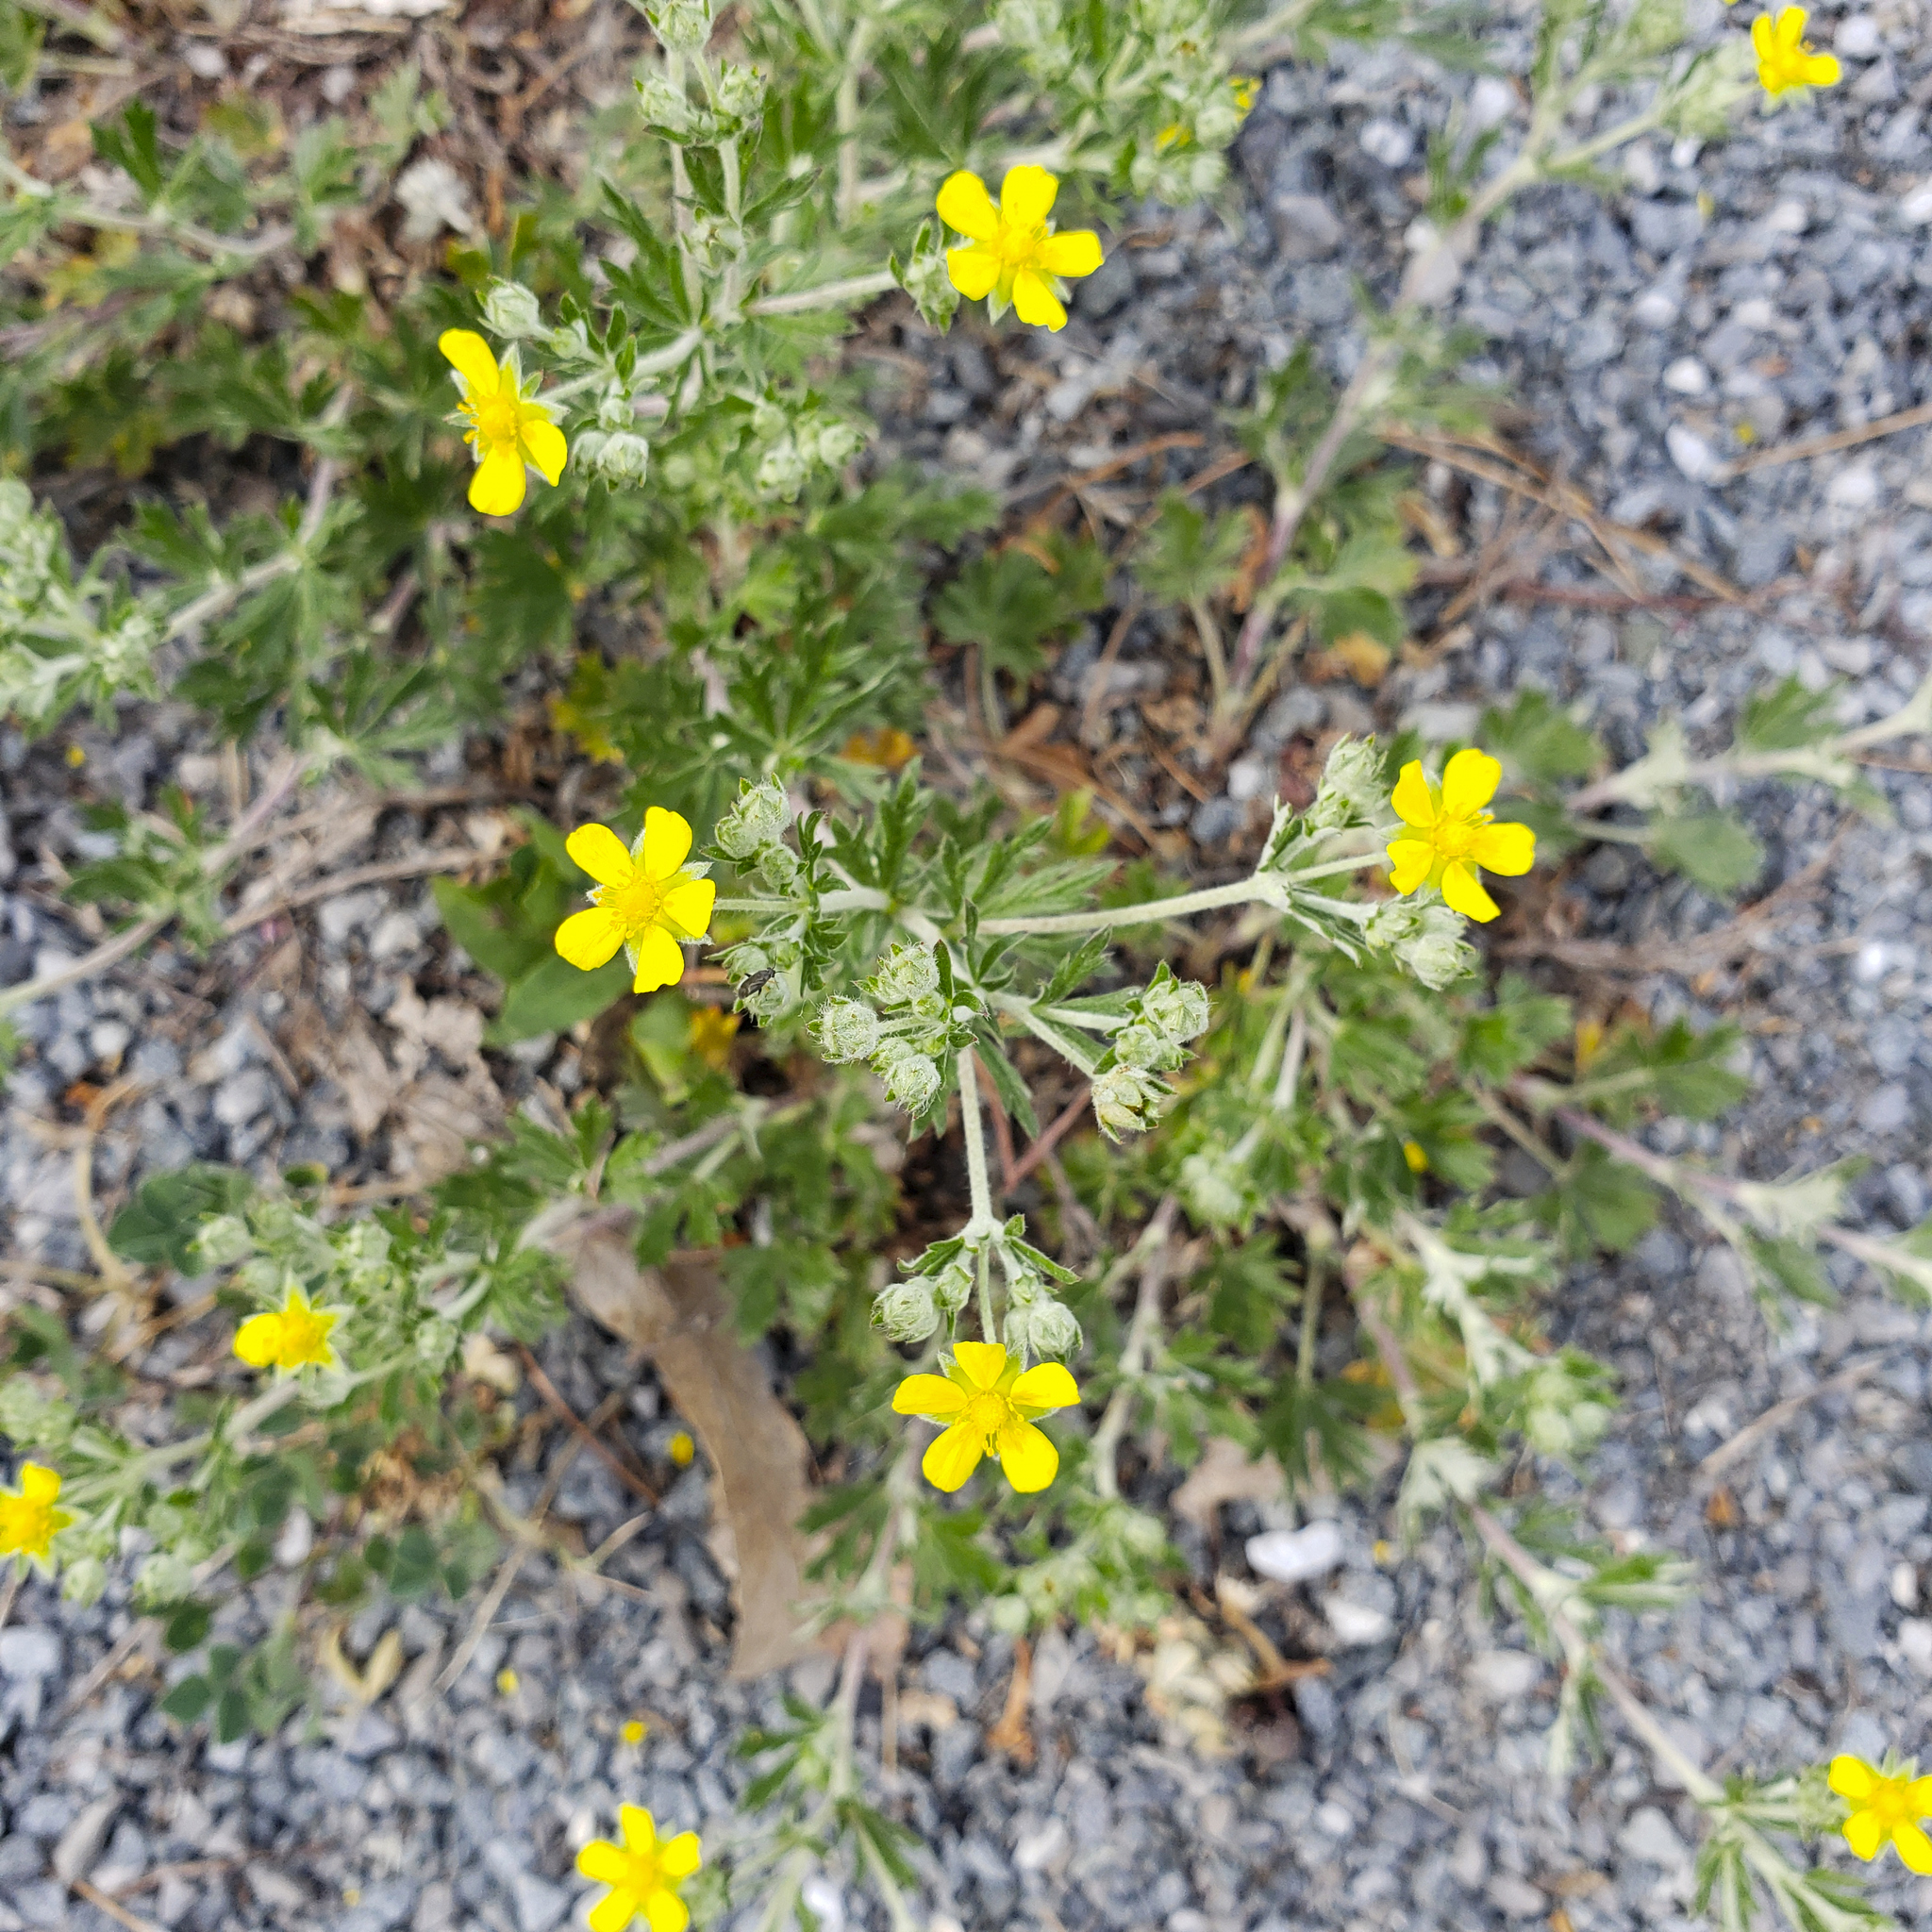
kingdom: Plantae
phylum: Tracheophyta
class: Magnoliopsida
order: Rosales
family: Rosaceae
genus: Potentilla
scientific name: Potentilla argentea
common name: Hoary cinquefoil
